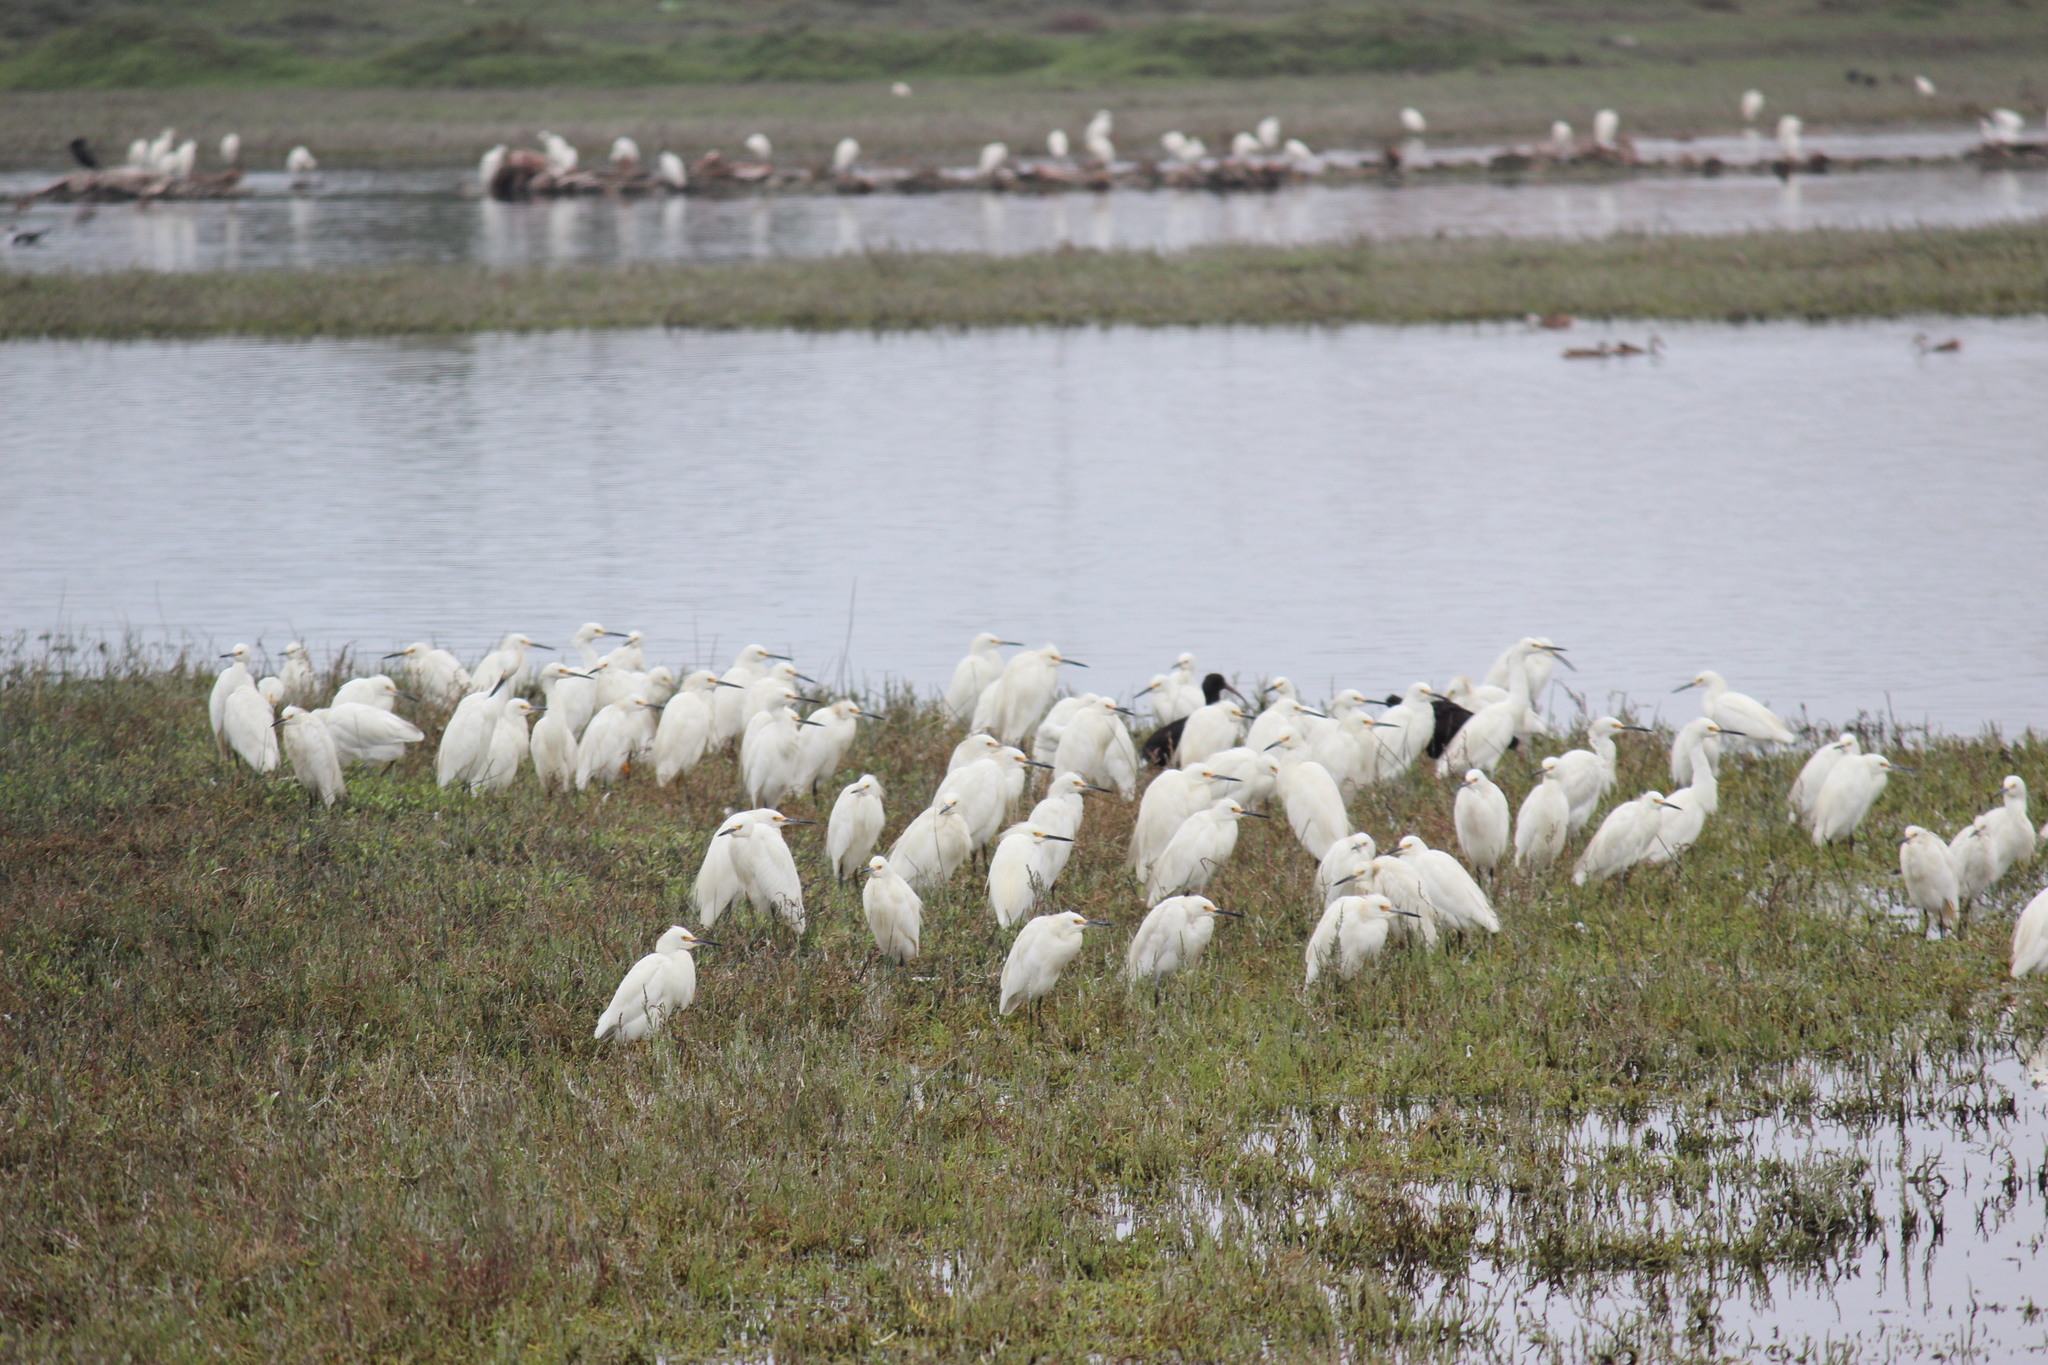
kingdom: Animalia
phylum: Chordata
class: Aves
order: Pelecaniformes
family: Ardeidae
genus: Egretta
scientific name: Egretta thula
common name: Snowy egret
